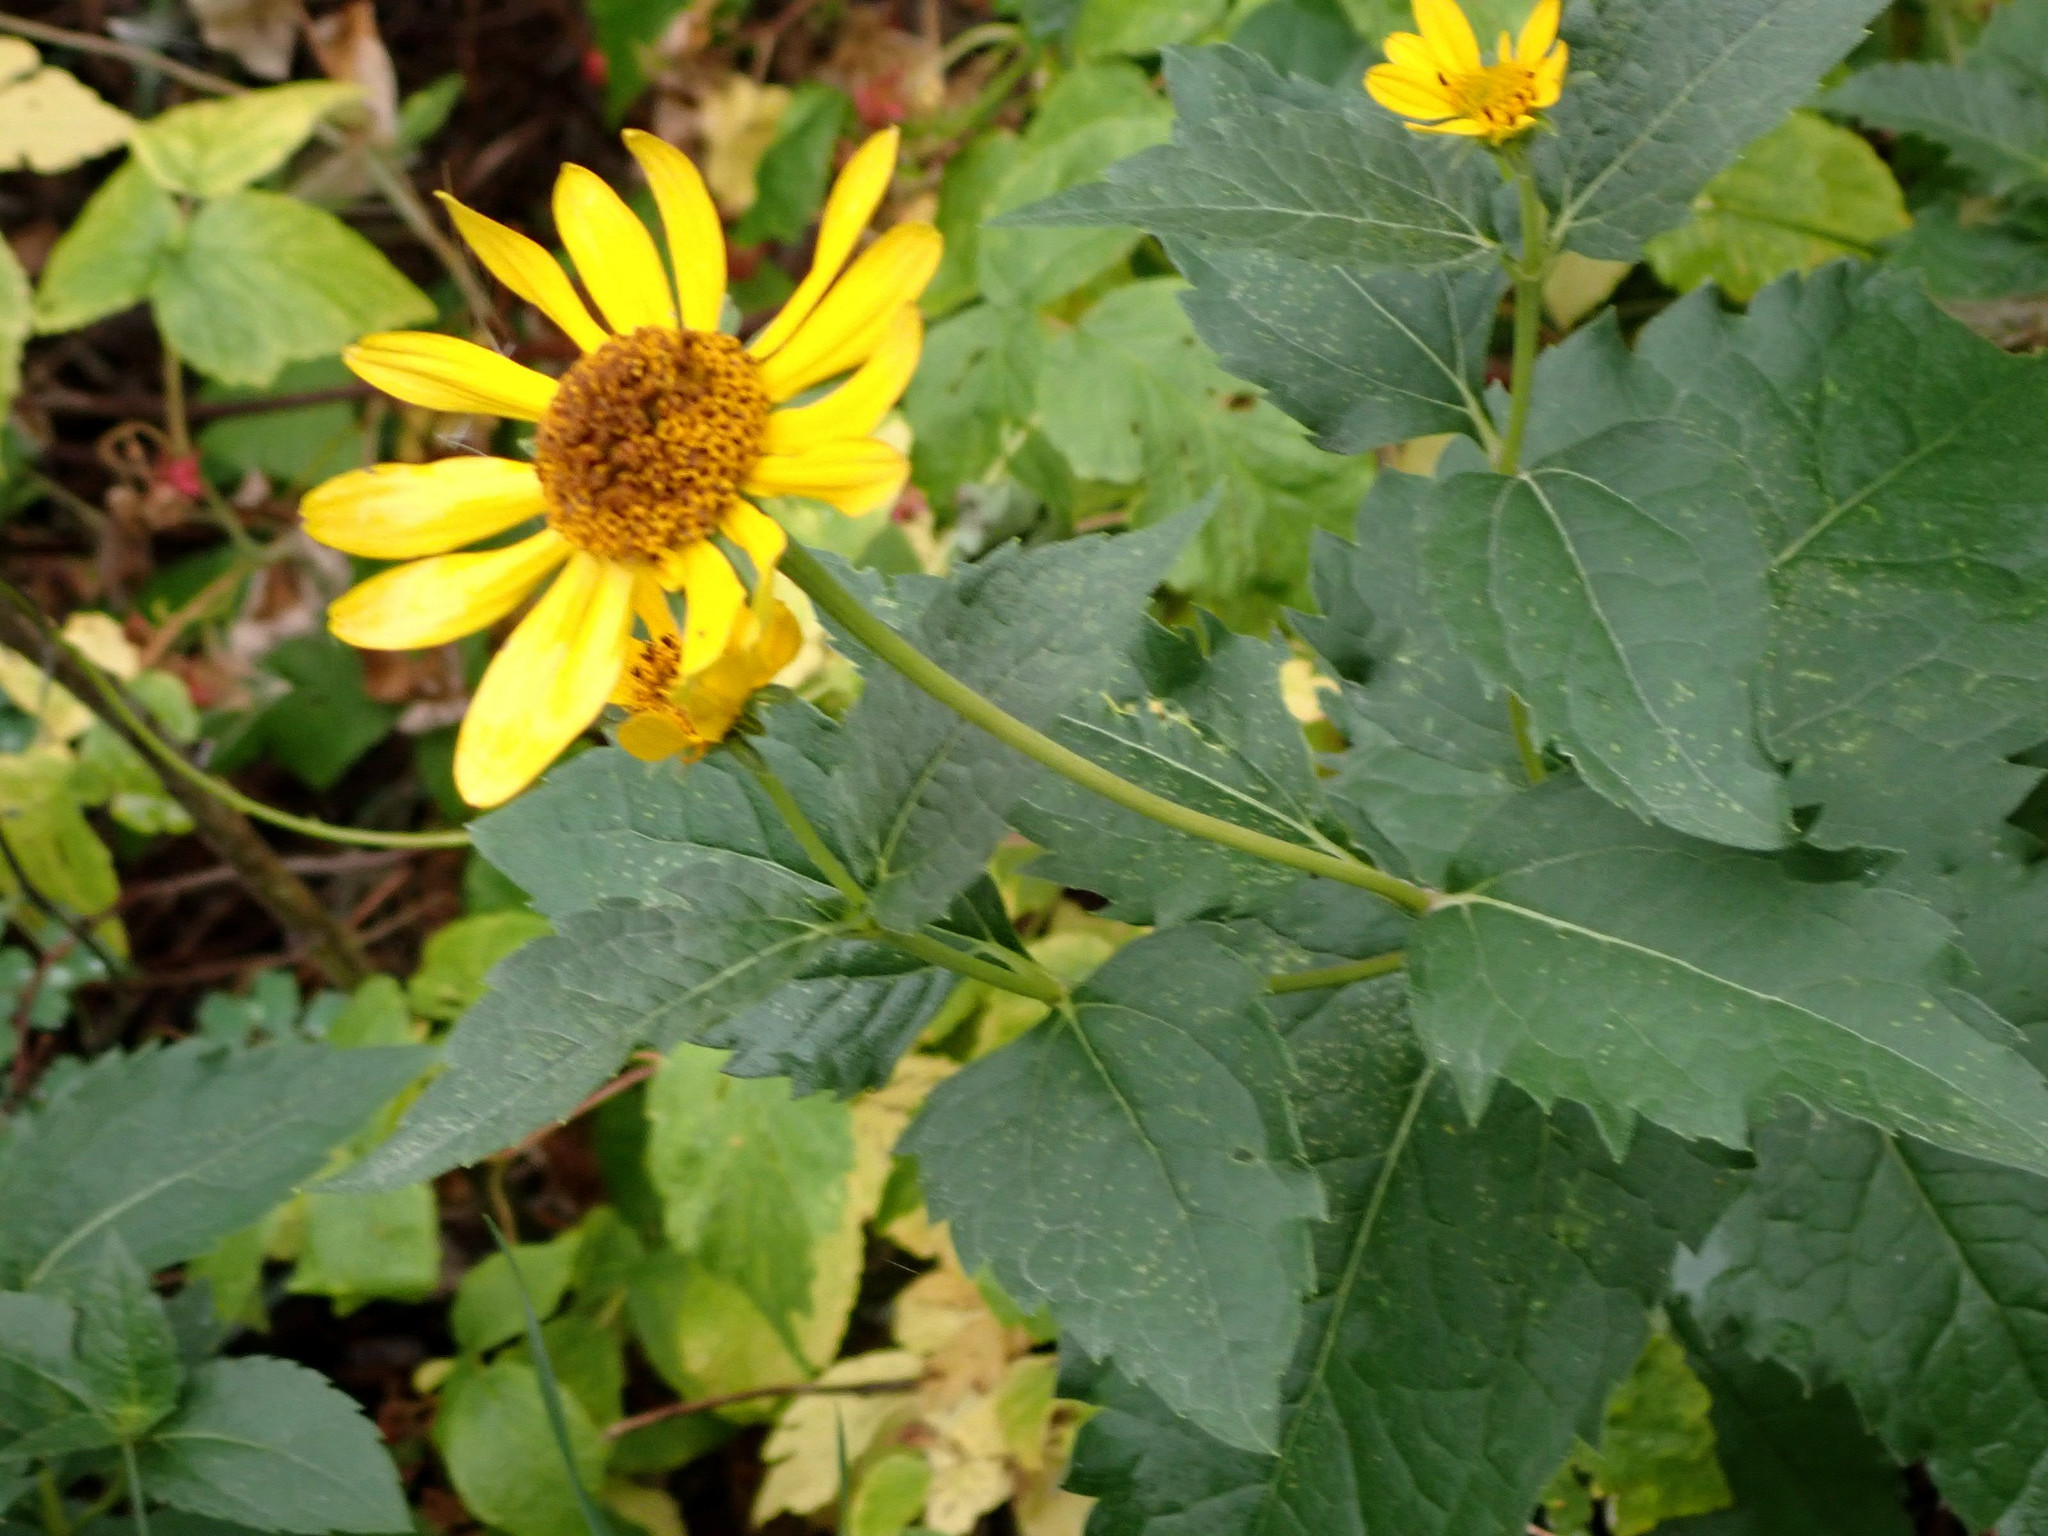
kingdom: Plantae
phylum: Tracheophyta
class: Magnoliopsida
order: Asterales
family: Asteraceae
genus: Heliopsis
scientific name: Heliopsis helianthoides
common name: False sunflower
